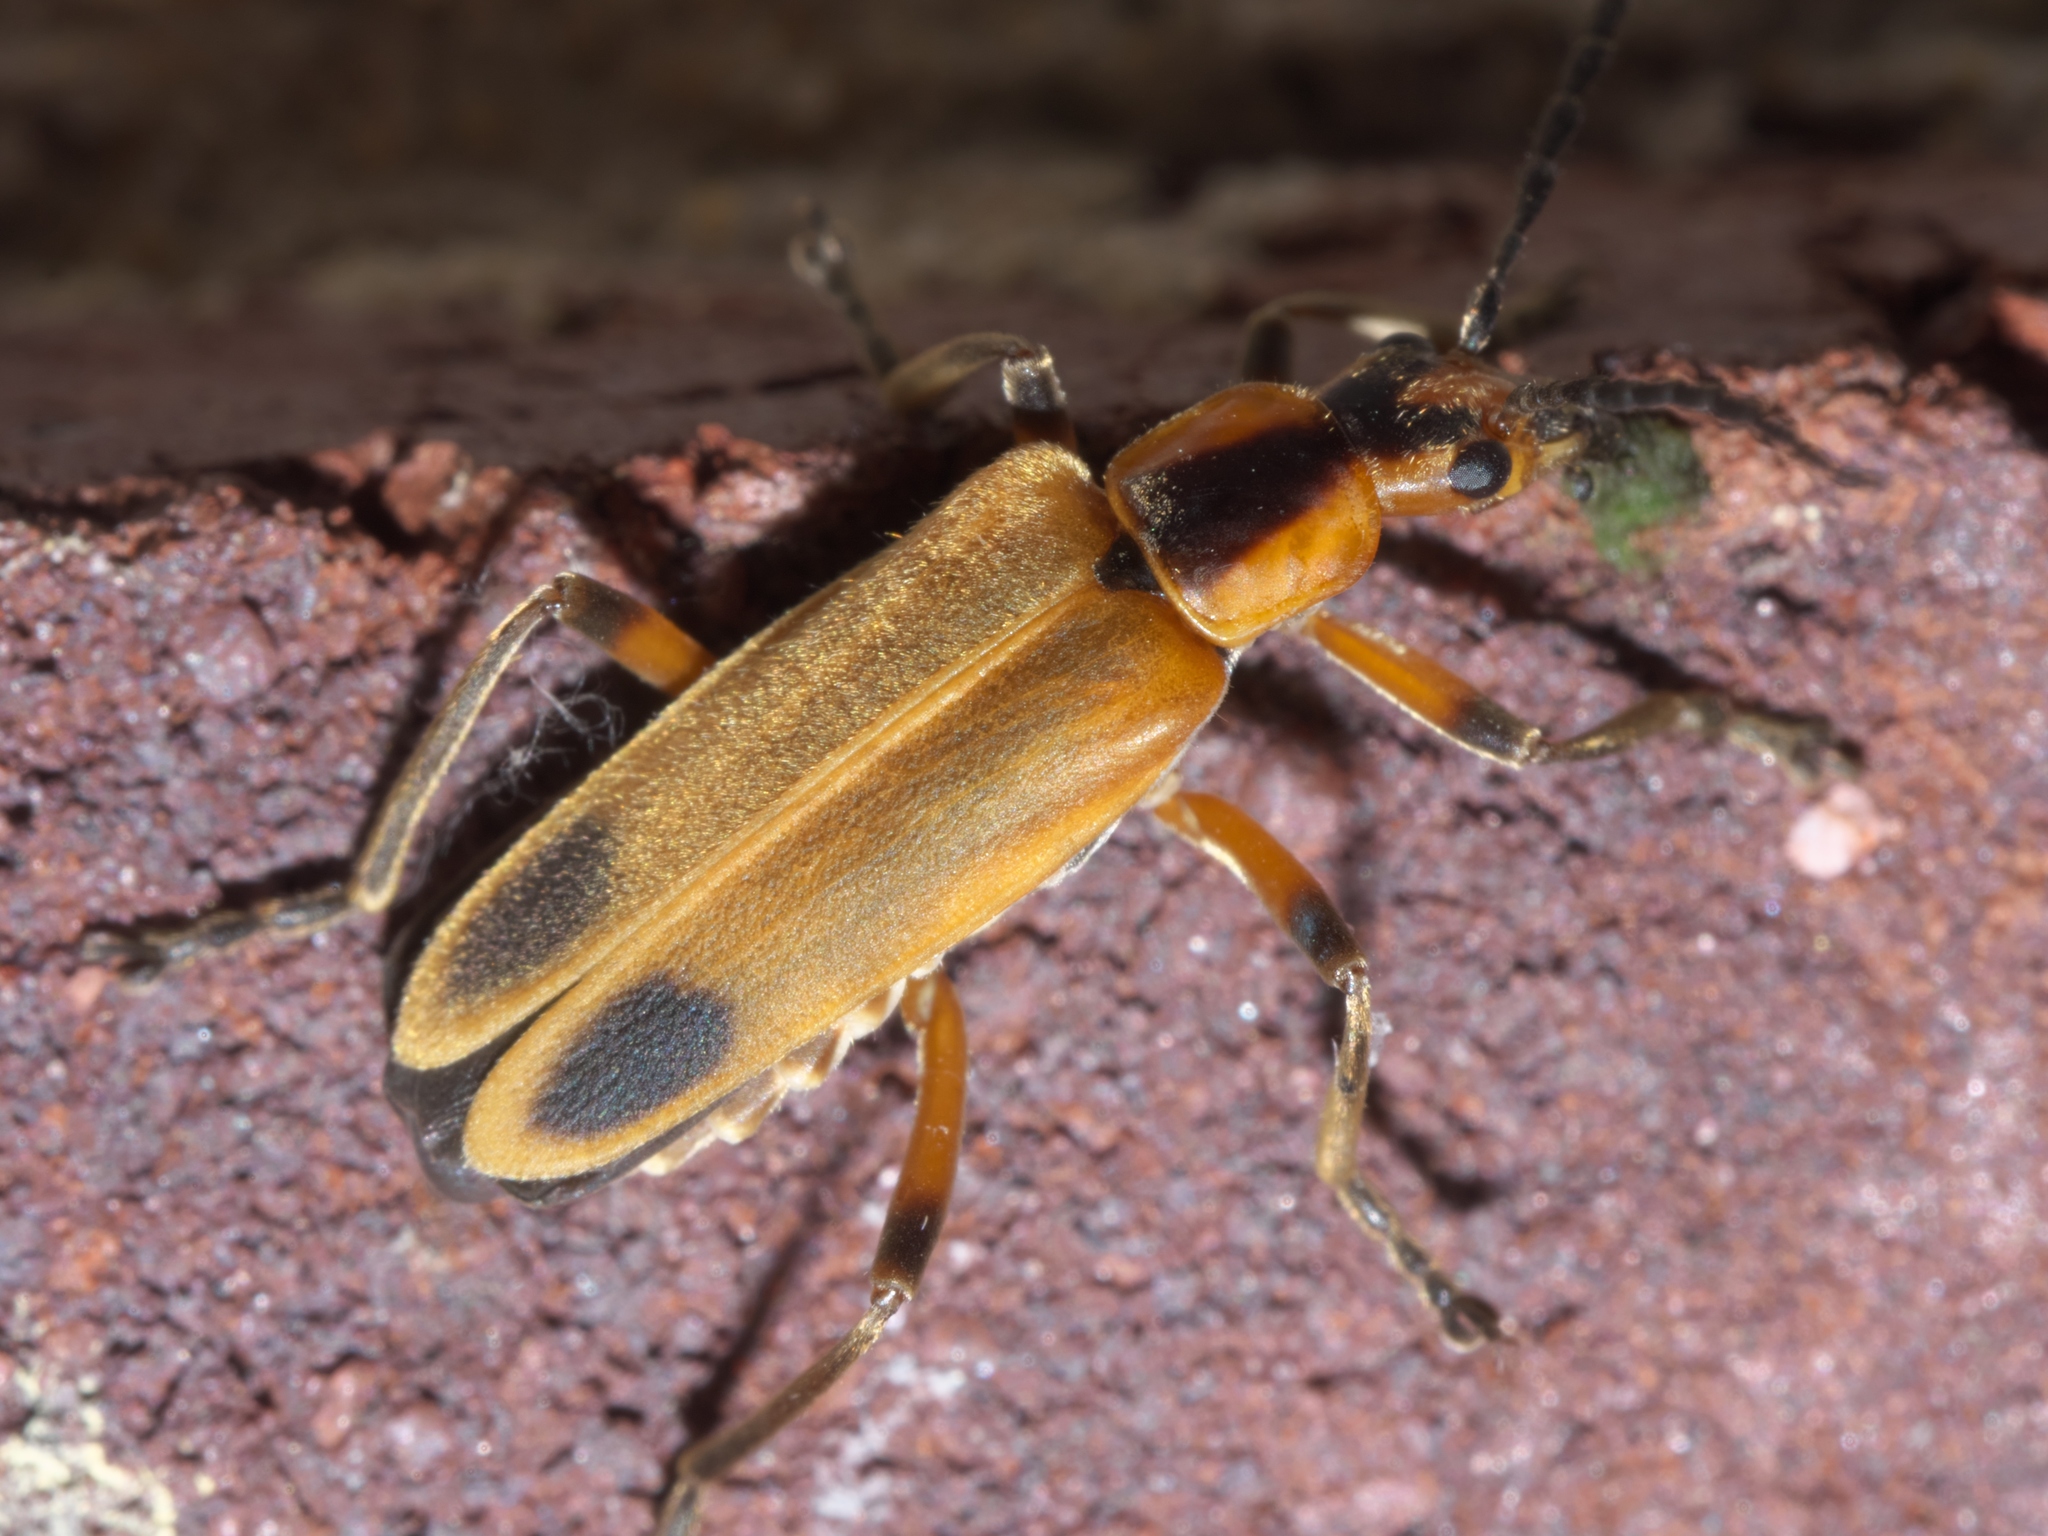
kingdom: Animalia
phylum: Arthropoda
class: Insecta
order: Coleoptera
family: Cantharidae
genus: Chauliognathus
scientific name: Chauliognathus marginatus
